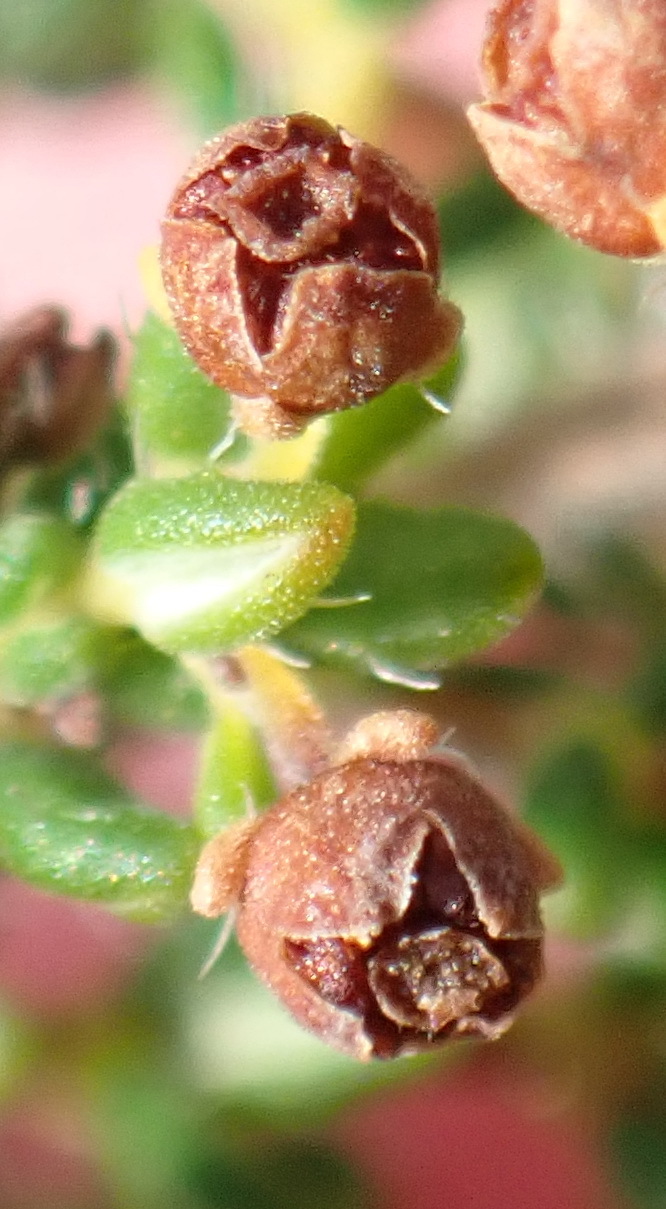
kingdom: Plantae
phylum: Tracheophyta
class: Magnoliopsida
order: Ericales
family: Ericaceae
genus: Erica
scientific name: Erica leucopelta
